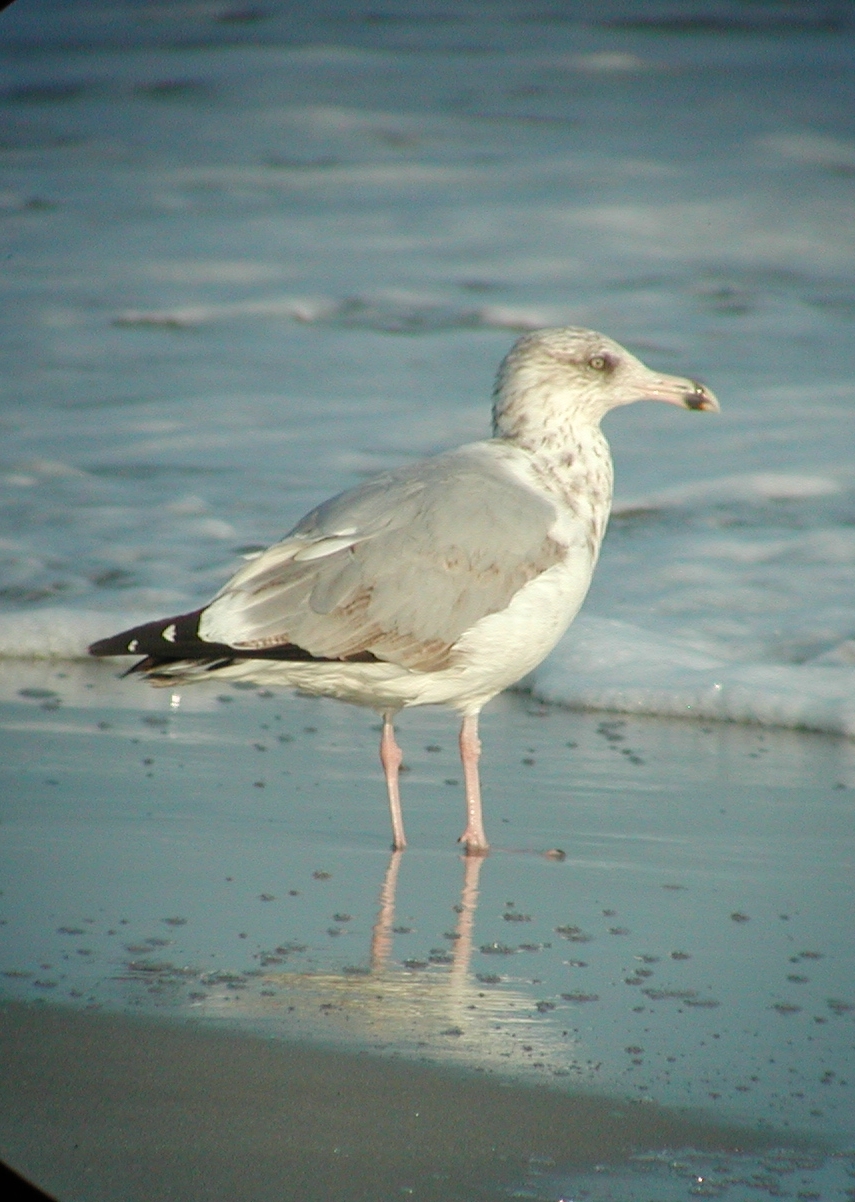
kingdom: Animalia
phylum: Chordata
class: Aves
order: Charadriiformes
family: Laridae
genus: Larus
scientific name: Larus argentatus
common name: Herring gull
